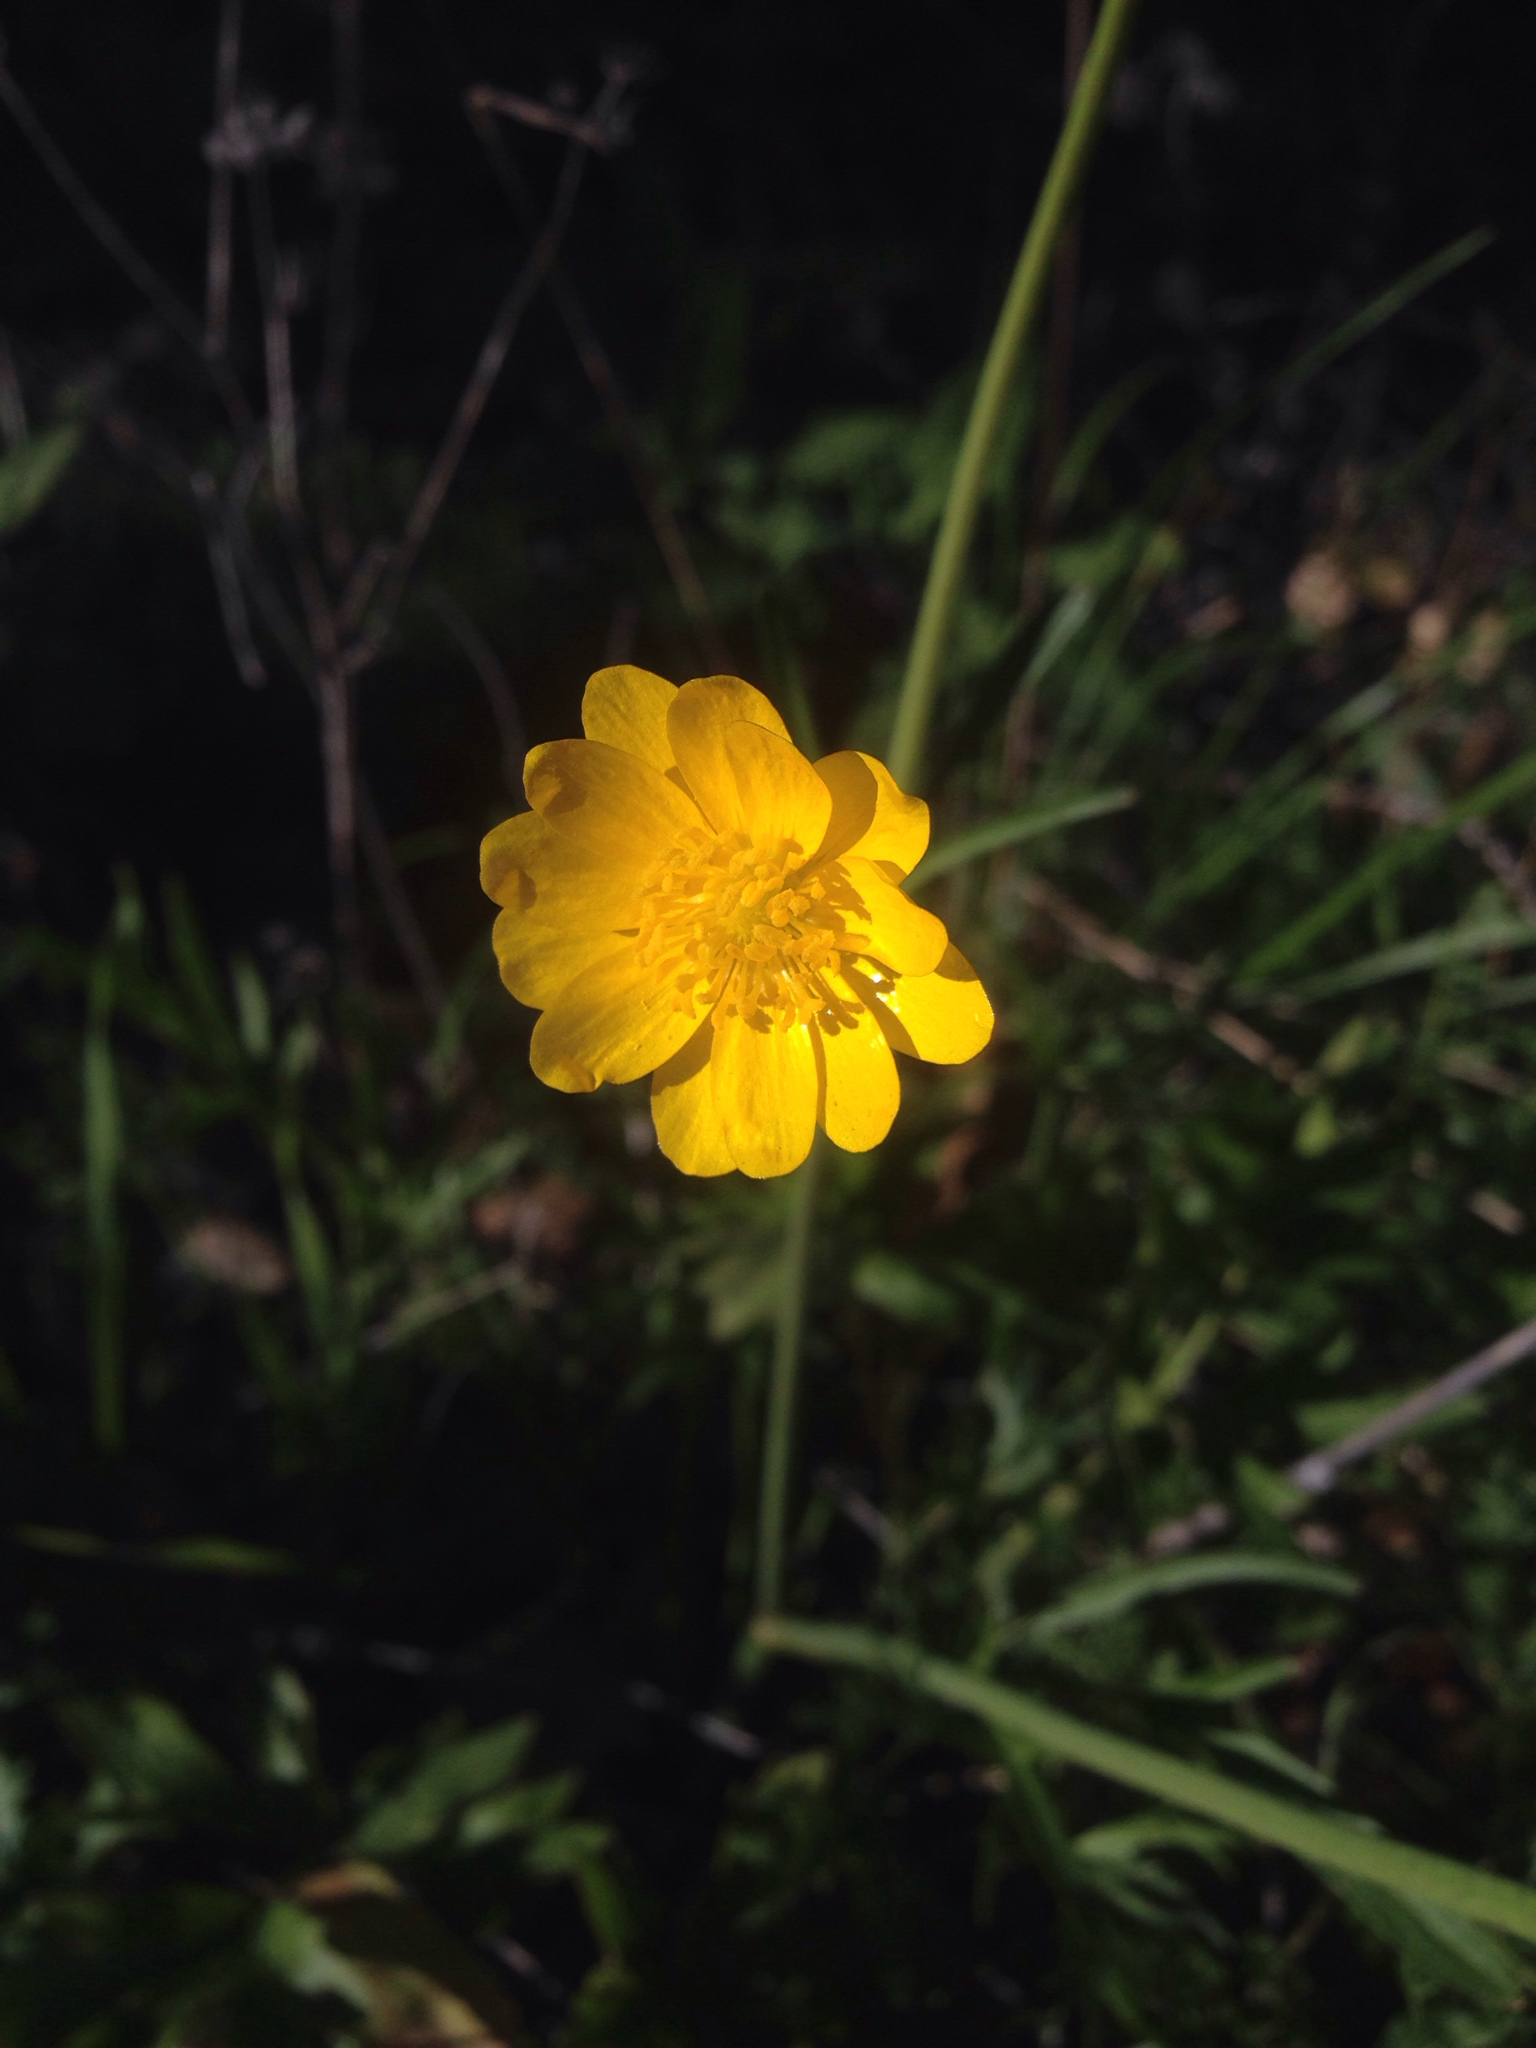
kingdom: Plantae
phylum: Tracheophyta
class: Magnoliopsida
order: Ranunculales
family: Ranunculaceae
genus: Ranunculus
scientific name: Ranunculus californicus
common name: California buttercup
